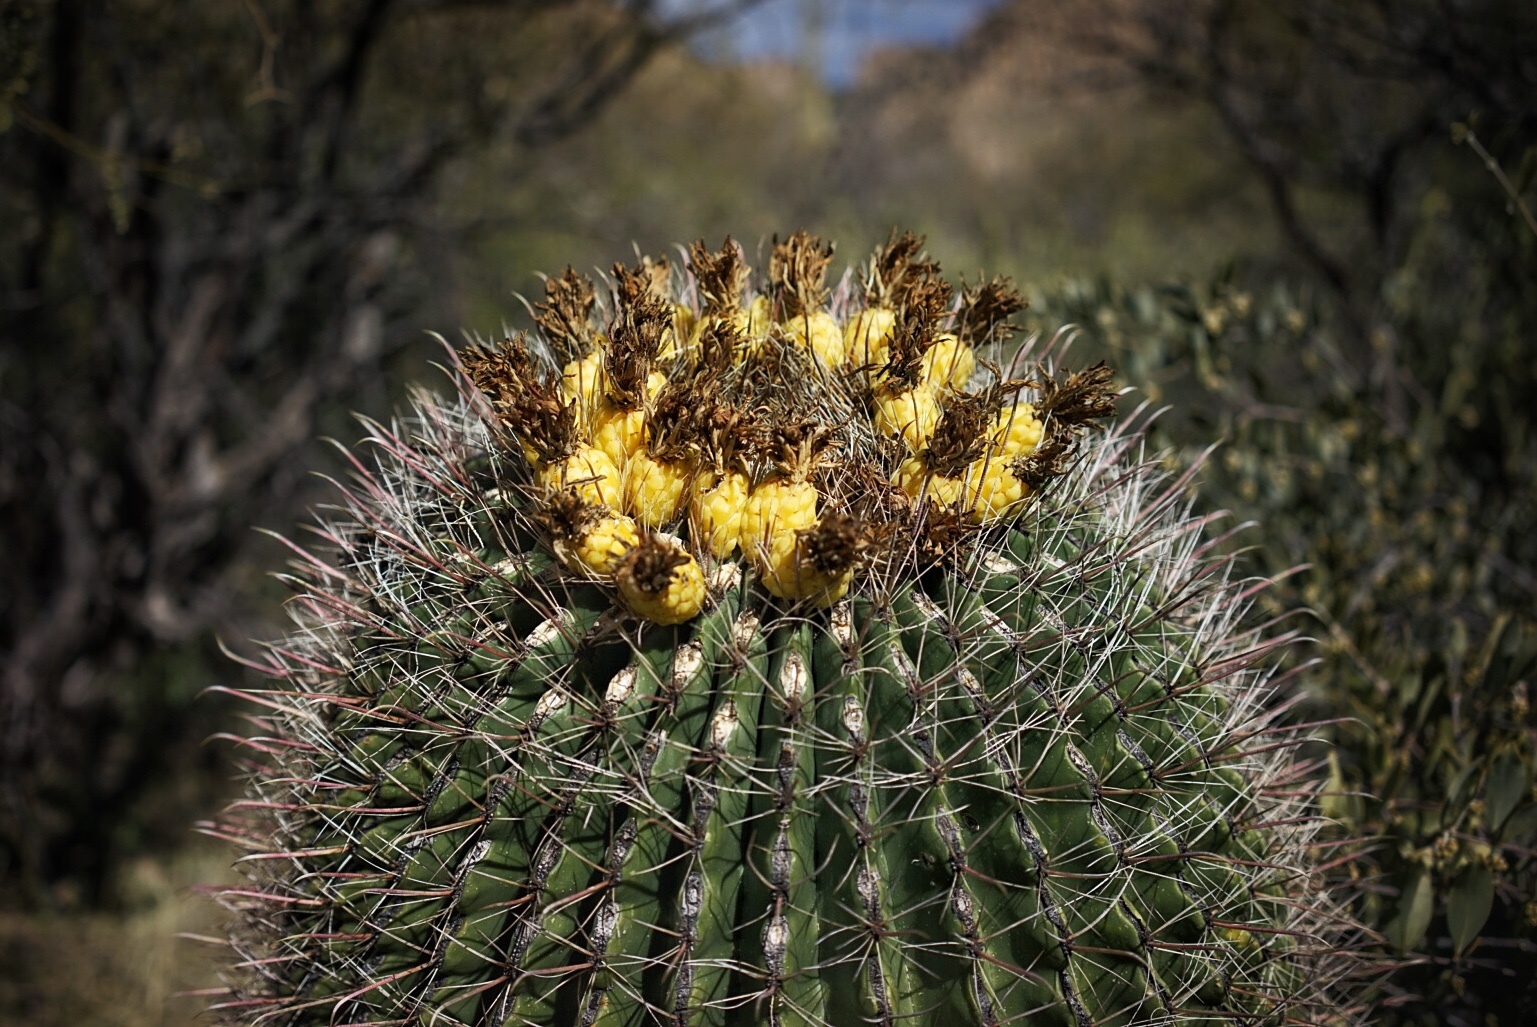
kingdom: Plantae
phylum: Tracheophyta
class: Magnoliopsida
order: Caryophyllales
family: Cactaceae
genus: Ferocactus
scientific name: Ferocactus wislizeni
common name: Candy barrel cactus
